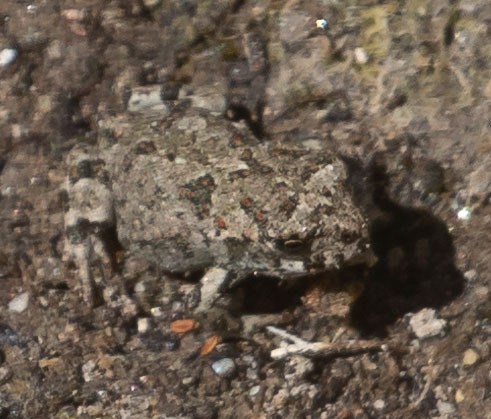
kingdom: Animalia
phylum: Chordata
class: Amphibia
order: Anura
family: Bufonidae
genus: Anaxyrus
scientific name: Anaxyrus boreas
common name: Western toad
